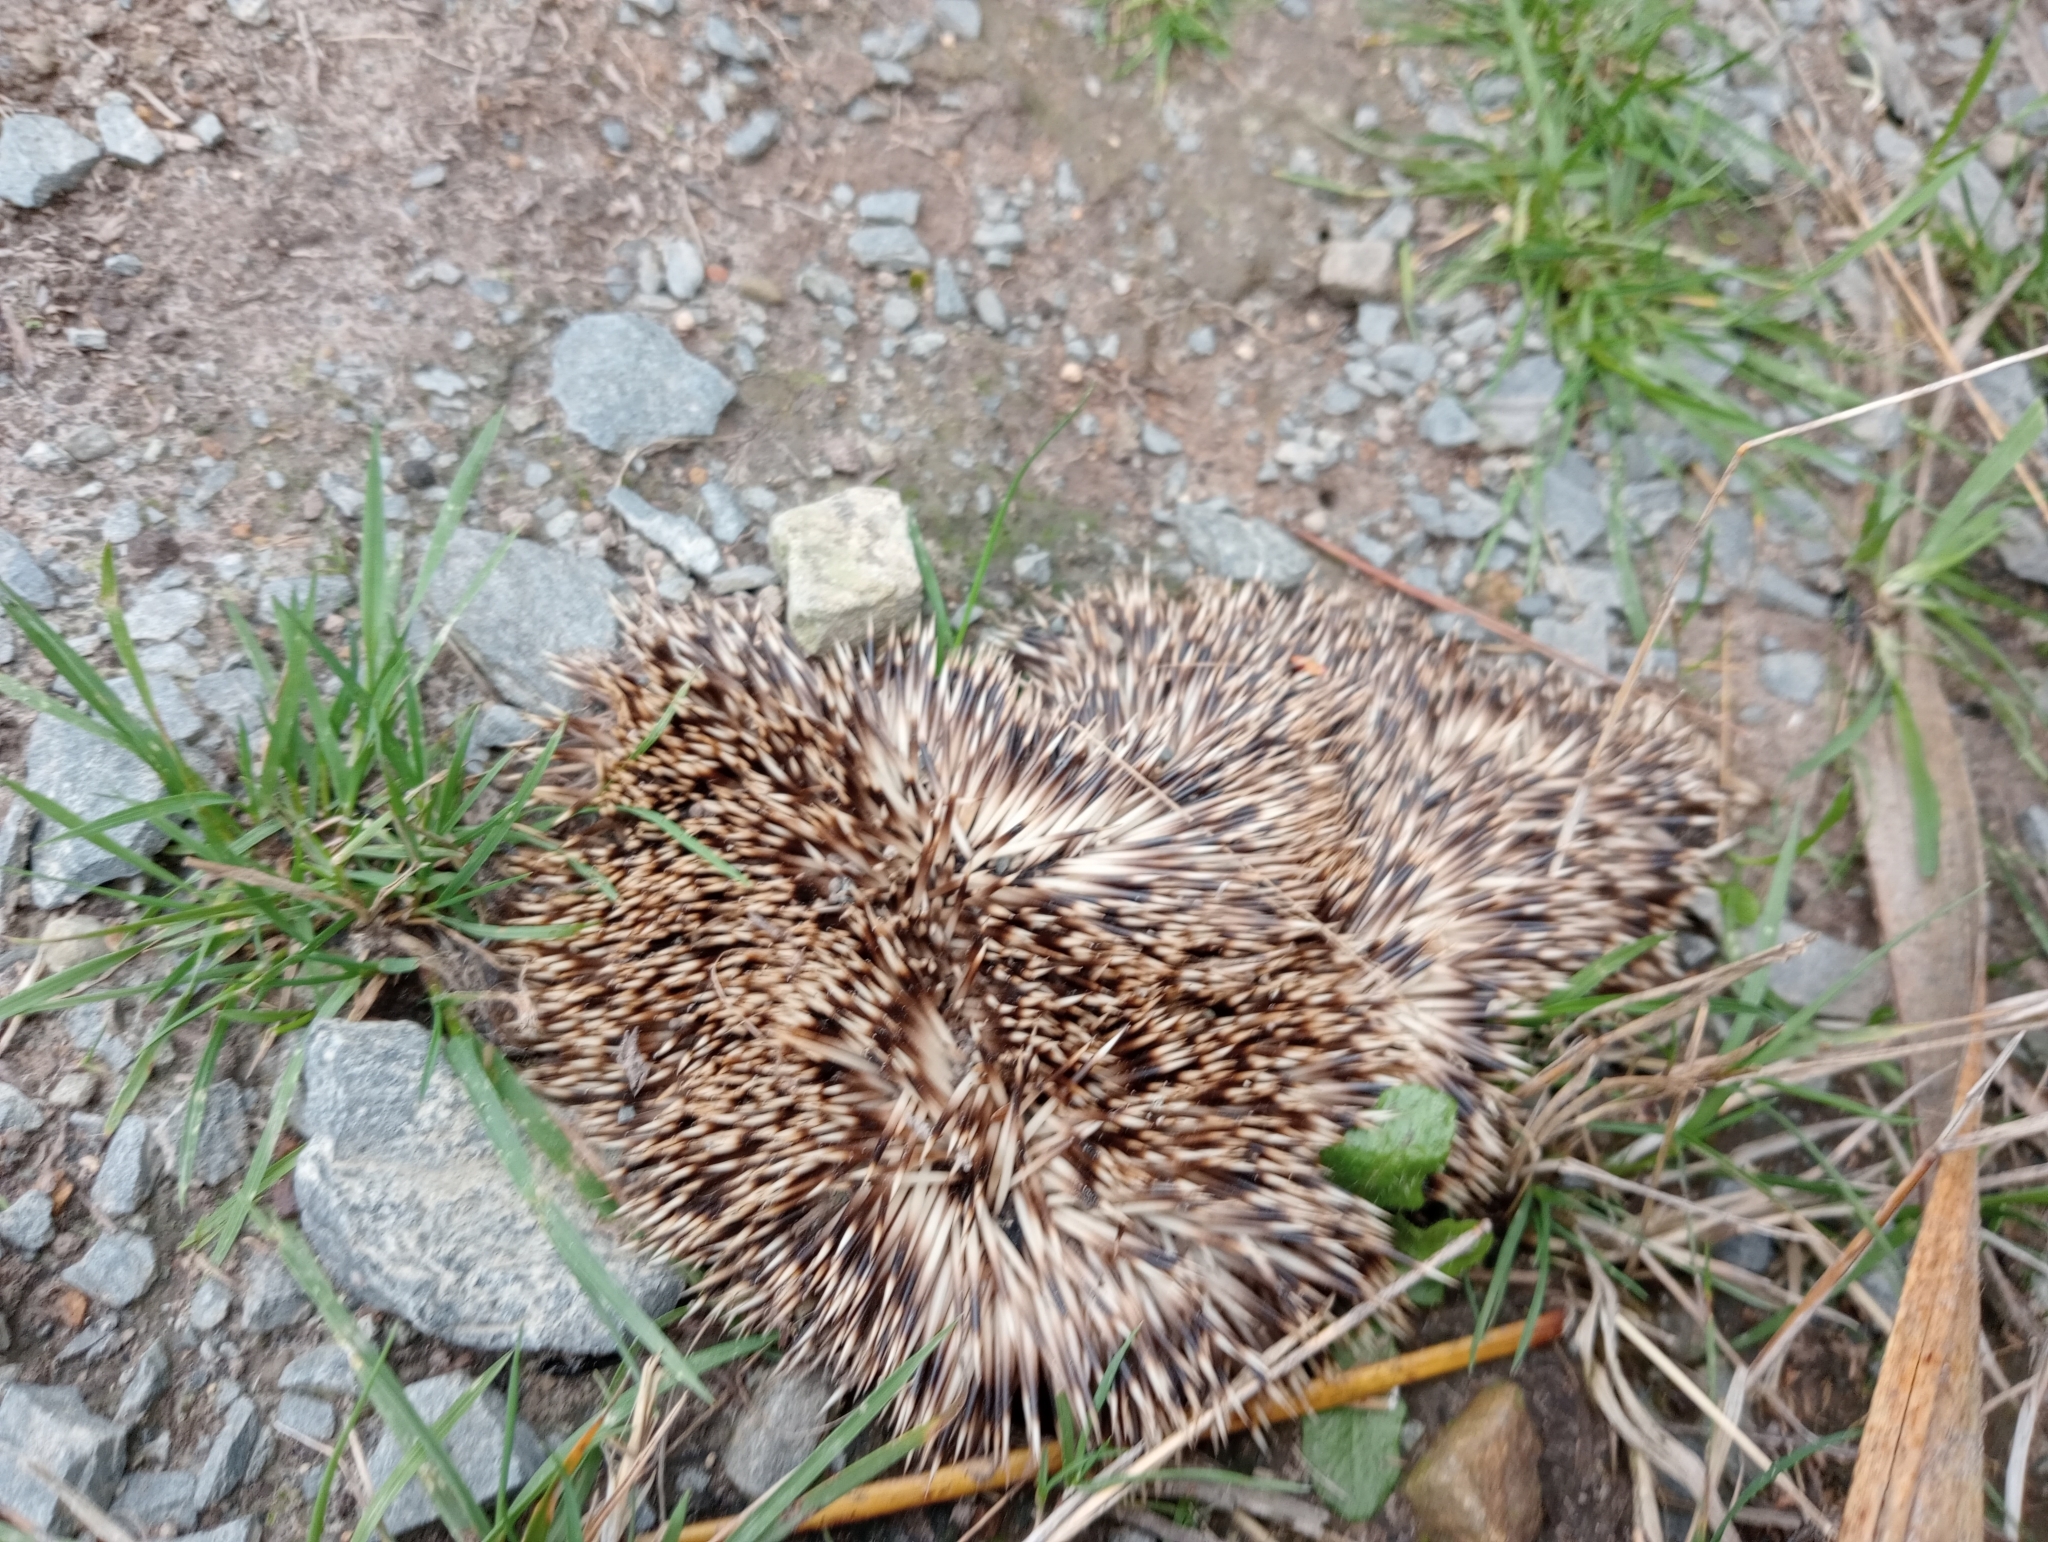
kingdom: Animalia
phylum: Chordata
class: Mammalia
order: Erinaceomorpha
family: Erinaceidae
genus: Erinaceus
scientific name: Erinaceus europaeus
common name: West european hedgehog
